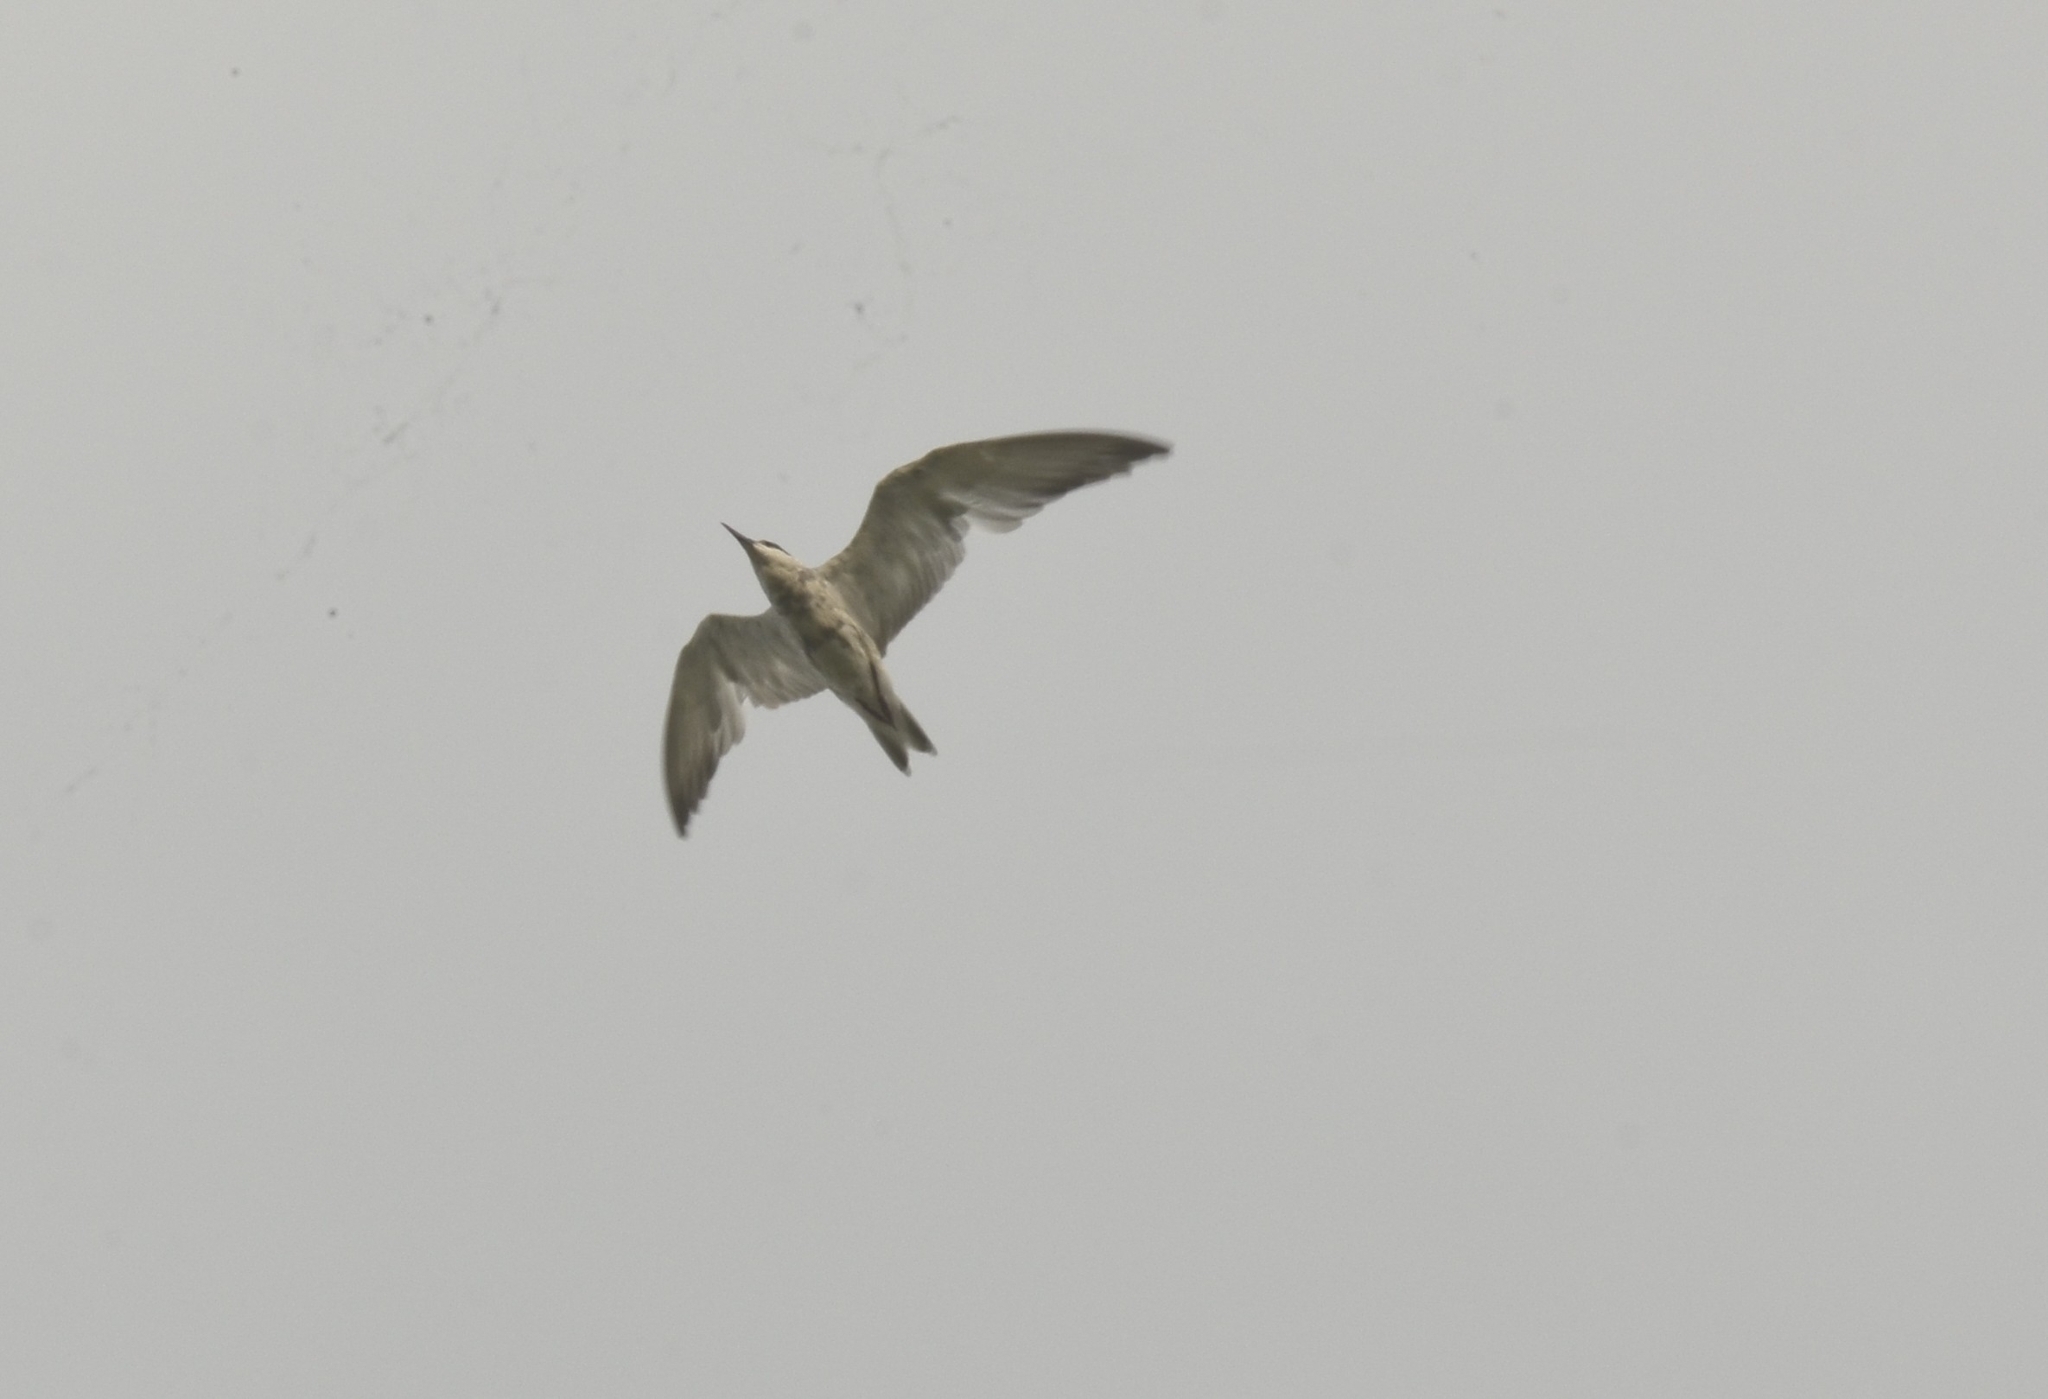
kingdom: Animalia
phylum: Chordata
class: Aves
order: Charadriiformes
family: Laridae
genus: Chlidonias
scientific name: Chlidonias hybrida
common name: Whiskered tern
